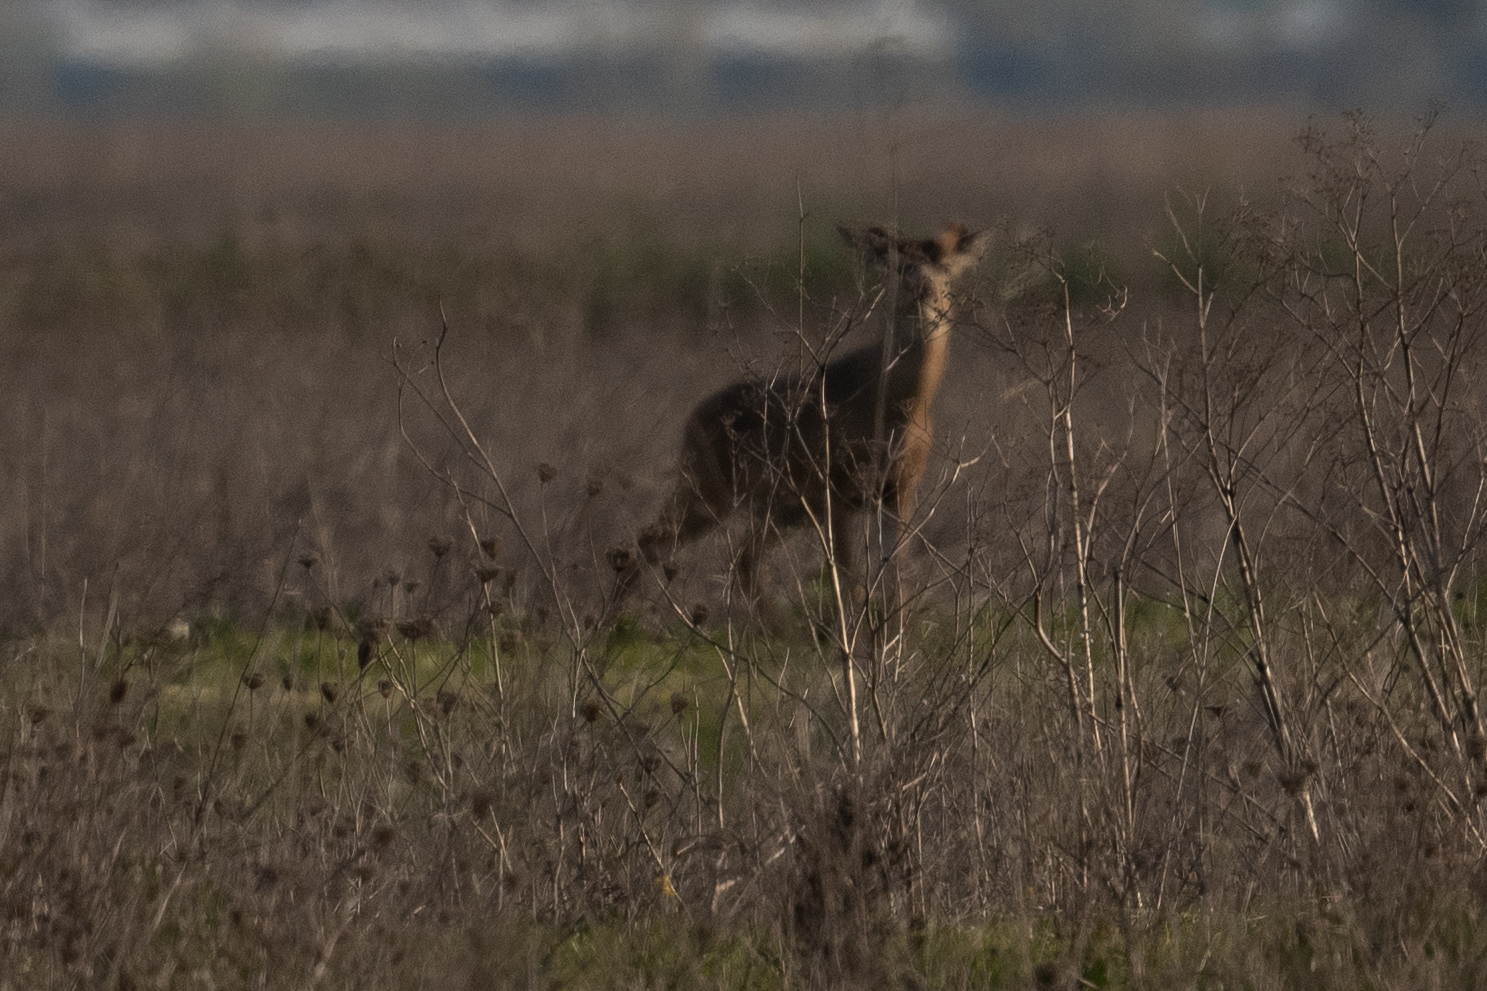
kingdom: Animalia
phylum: Chordata
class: Mammalia
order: Artiodactyla
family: Cervidae
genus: Odocoileus
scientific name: Odocoileus hemionus
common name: Mule deer
